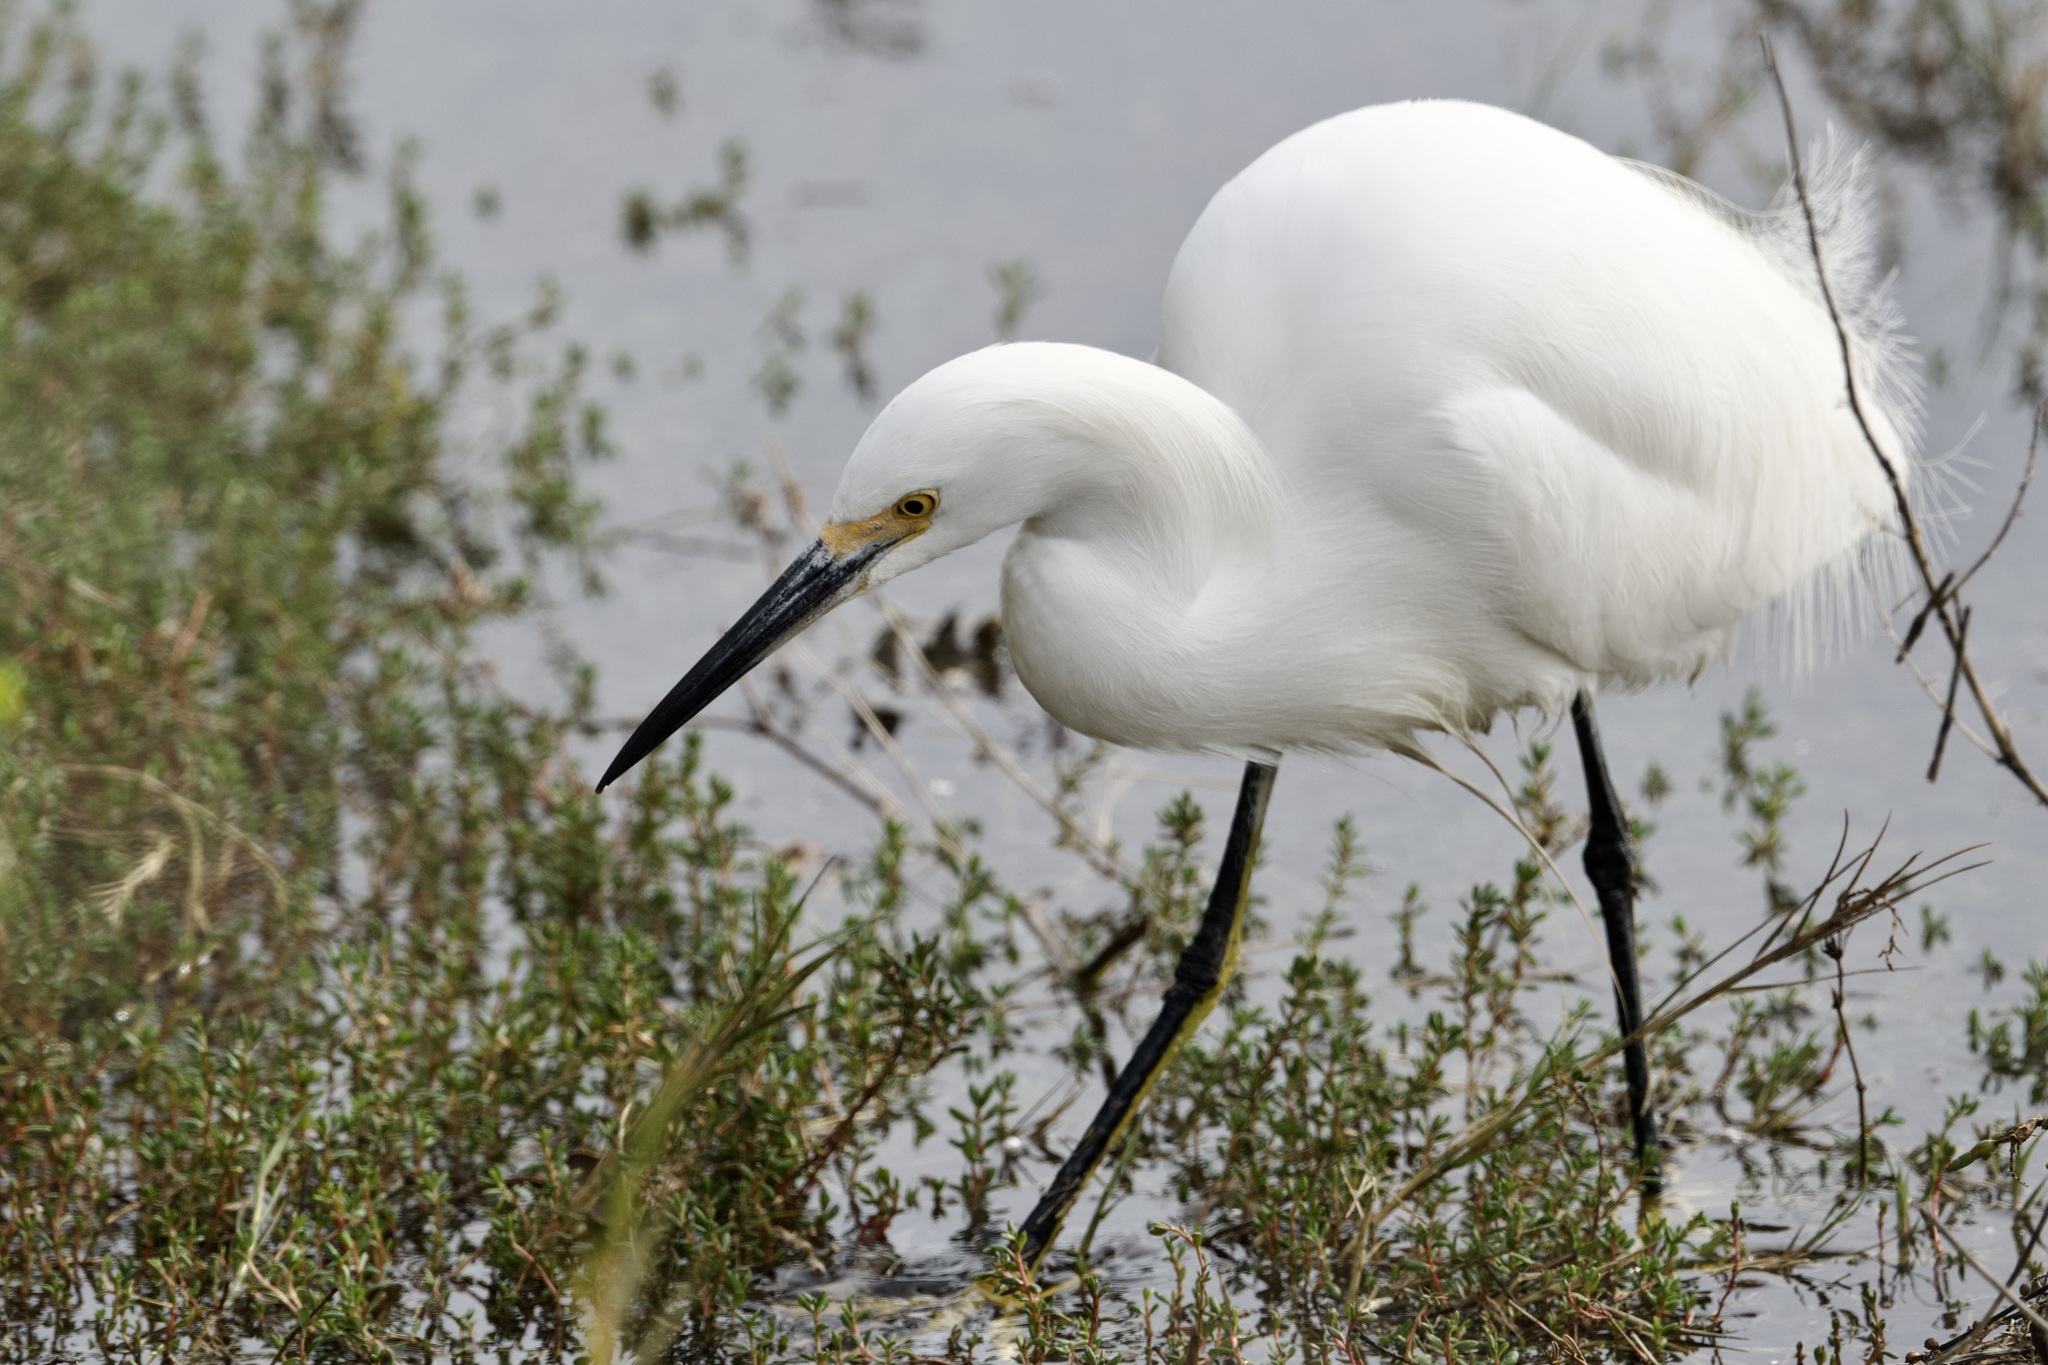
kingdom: Animalia
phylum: Chordata
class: Aves
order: Pelecaniformes
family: Ardeidae
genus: Egretta
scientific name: Egretta thula
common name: Snowy egret
